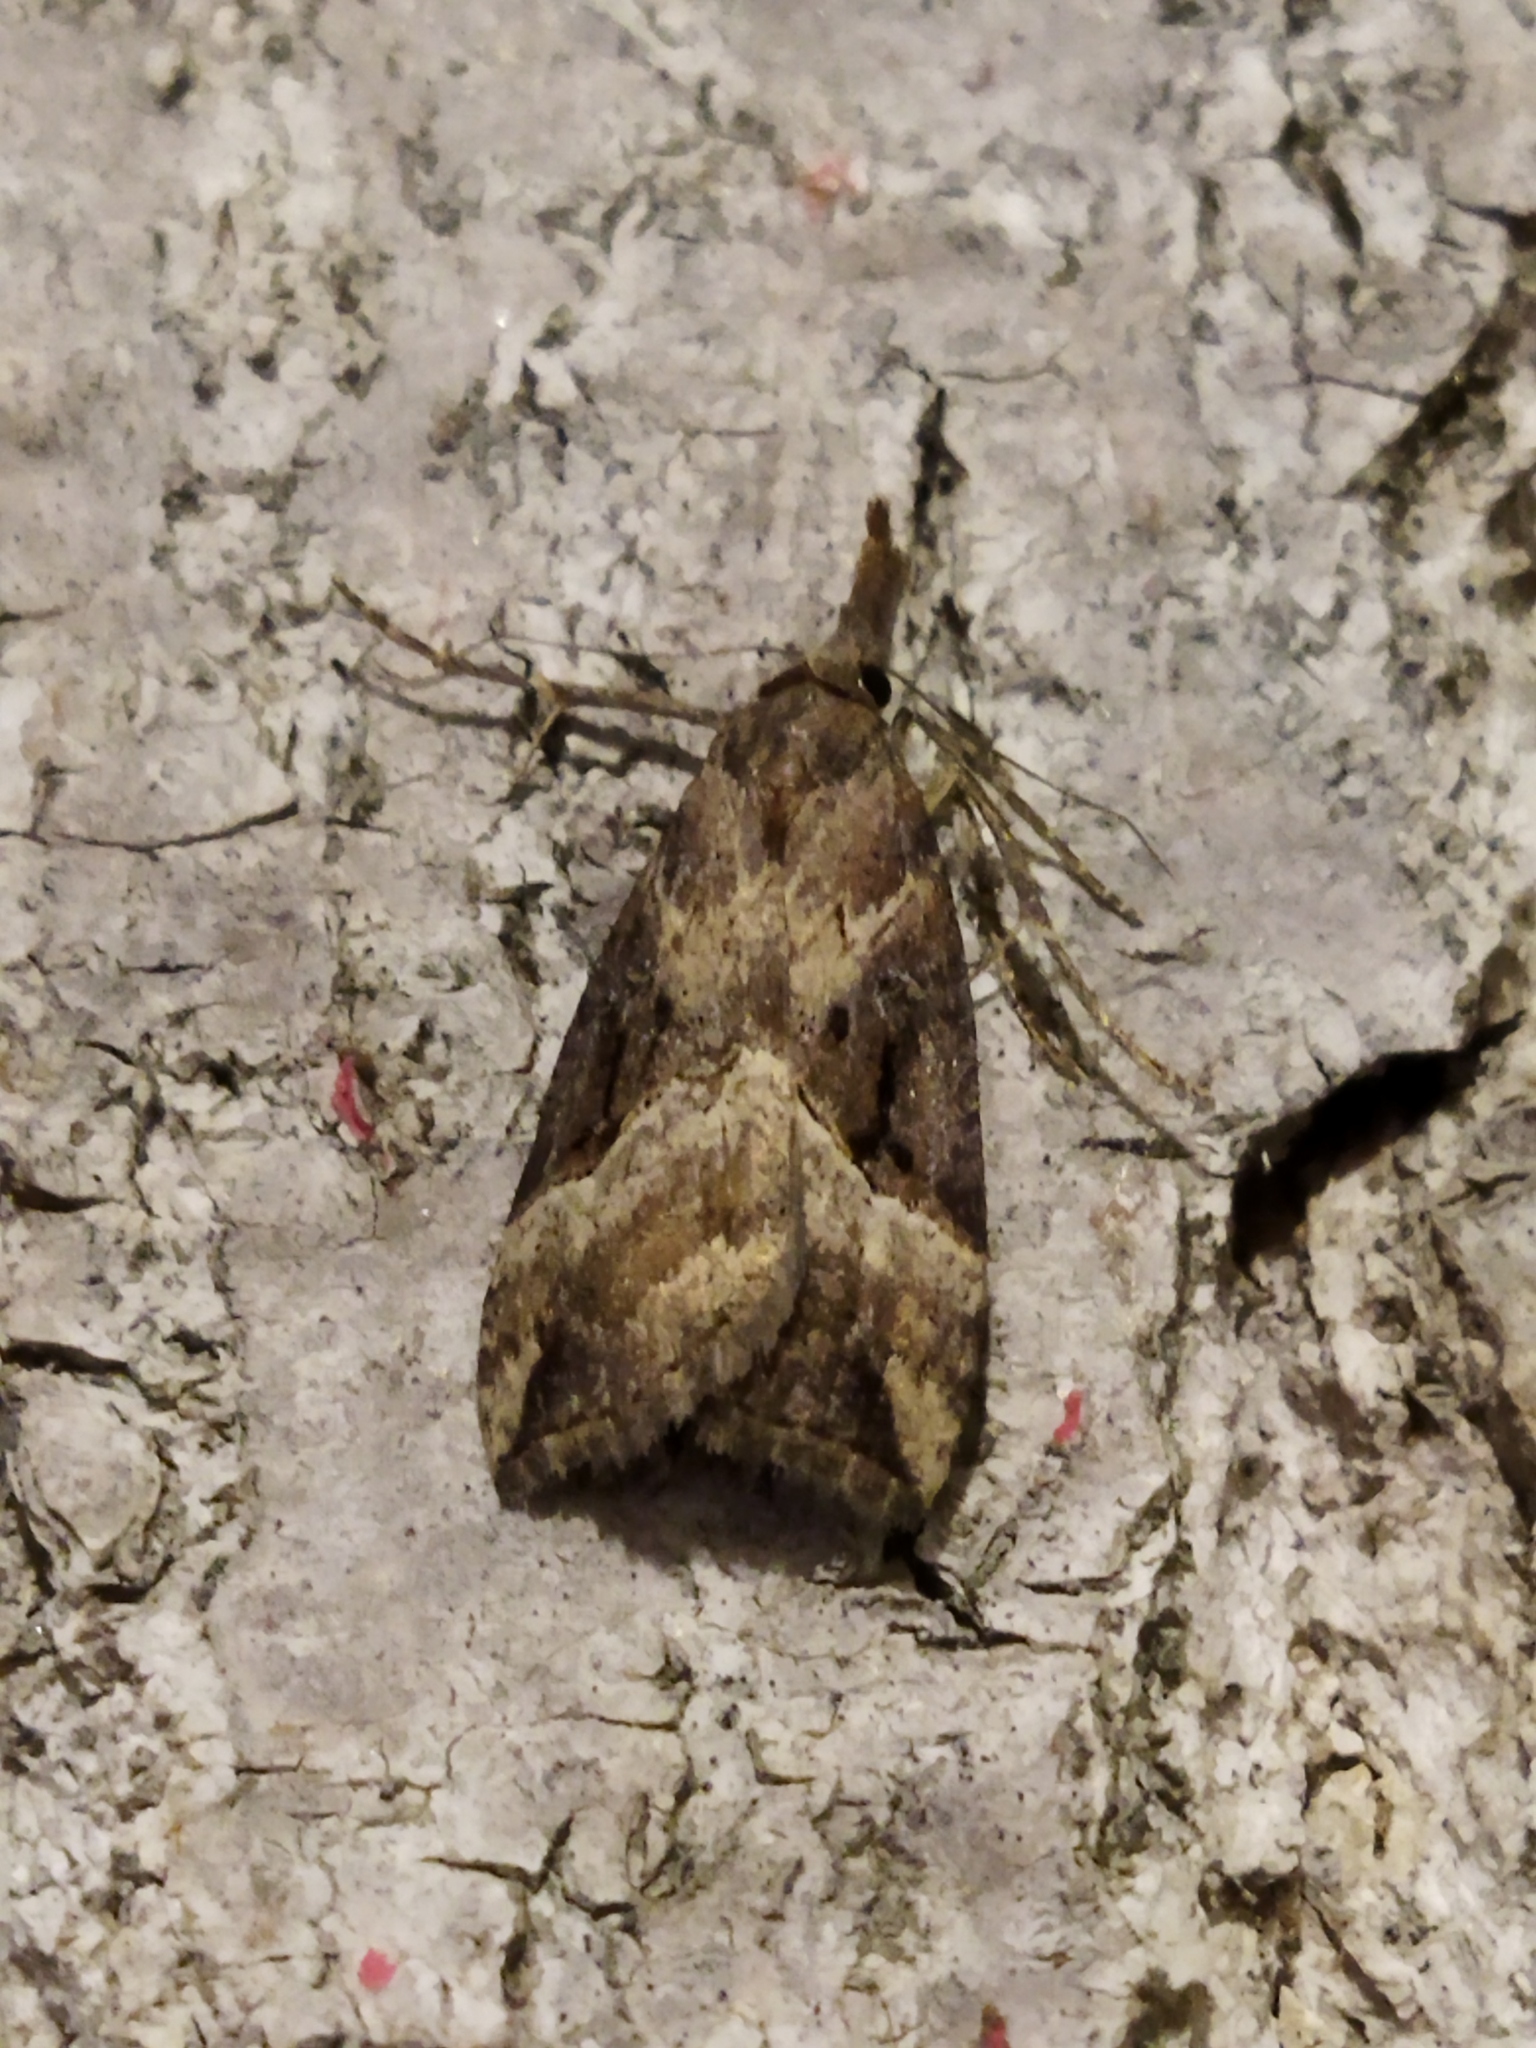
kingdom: Animalia
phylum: Arthropoda
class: Insecta
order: Lepidoptera
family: Erebidae
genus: Hypena
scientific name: Hypena rostralis
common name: Buttoned snout
